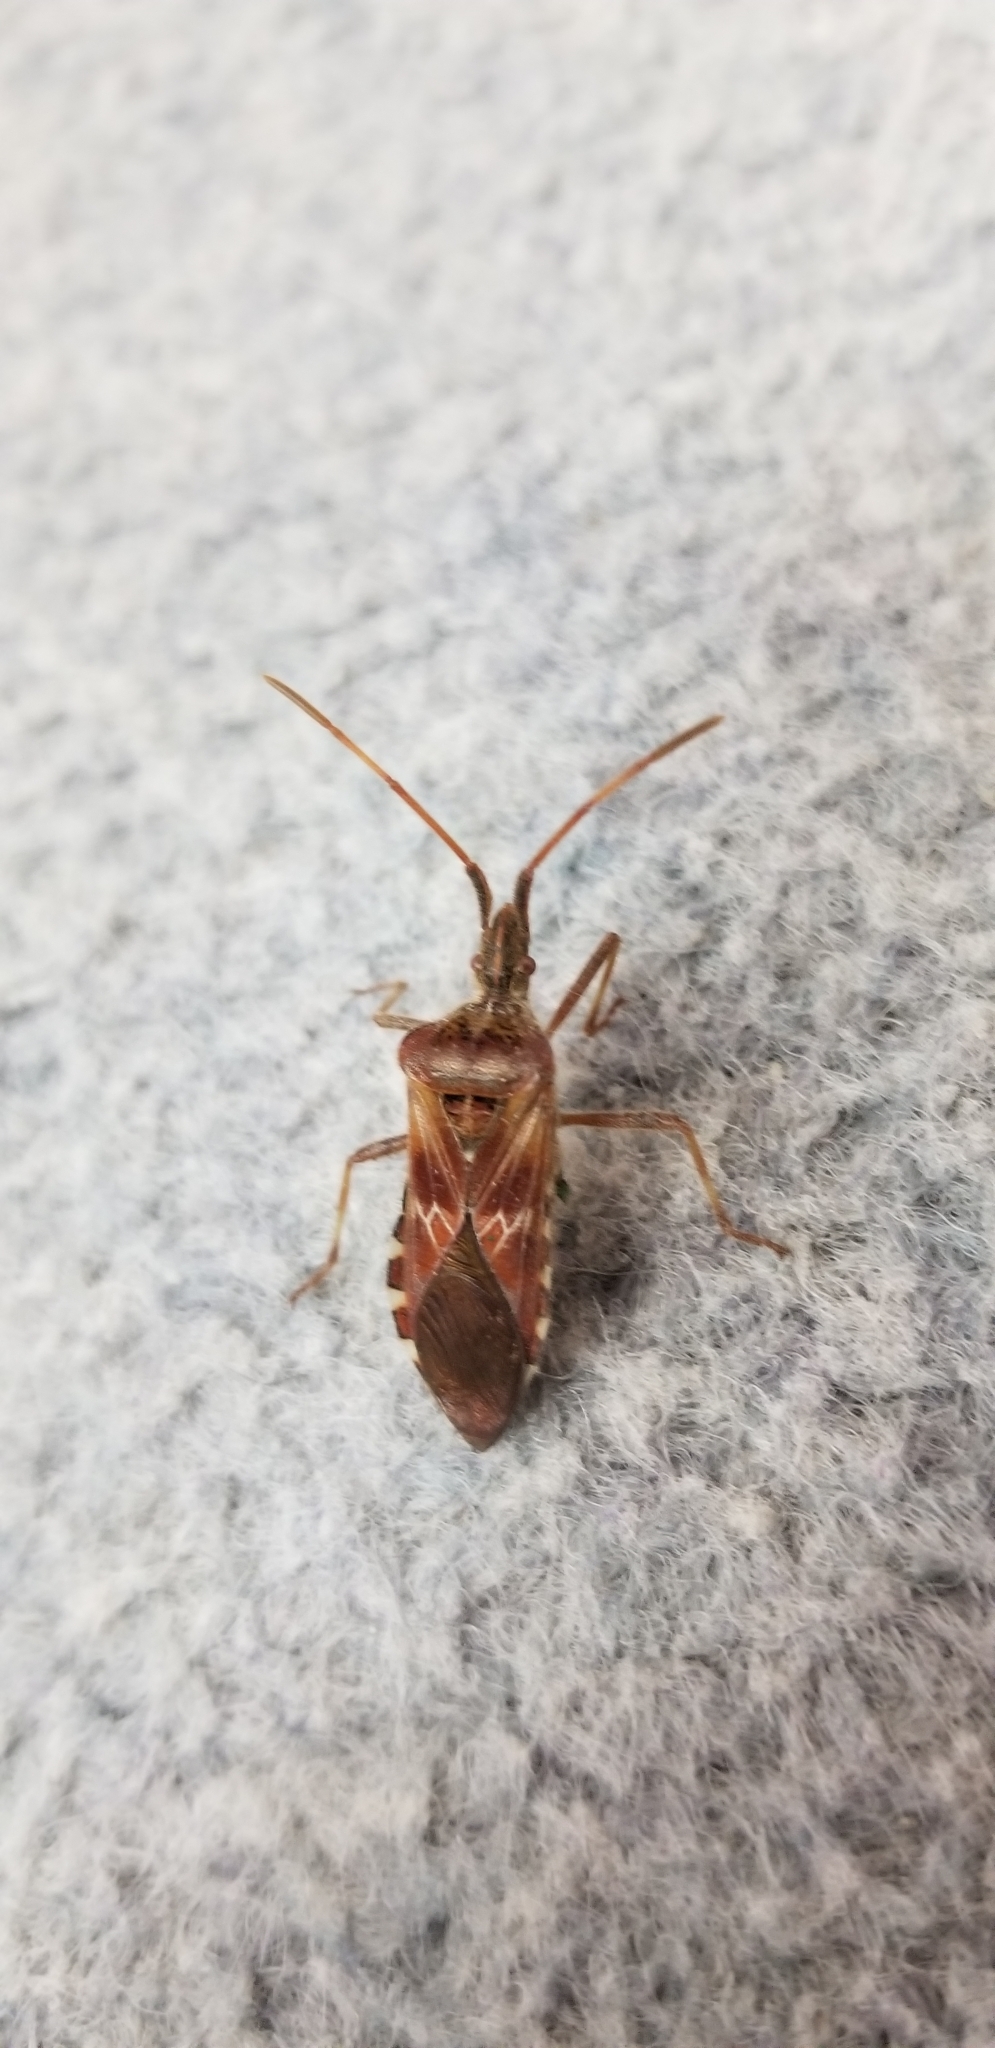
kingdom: Animalia
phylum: Arthropoda
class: Insecta
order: Hemiptera
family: Coreidae
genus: Leptoglossus
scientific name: Leptoglossus occidentalis
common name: Western conifer-seed bug
